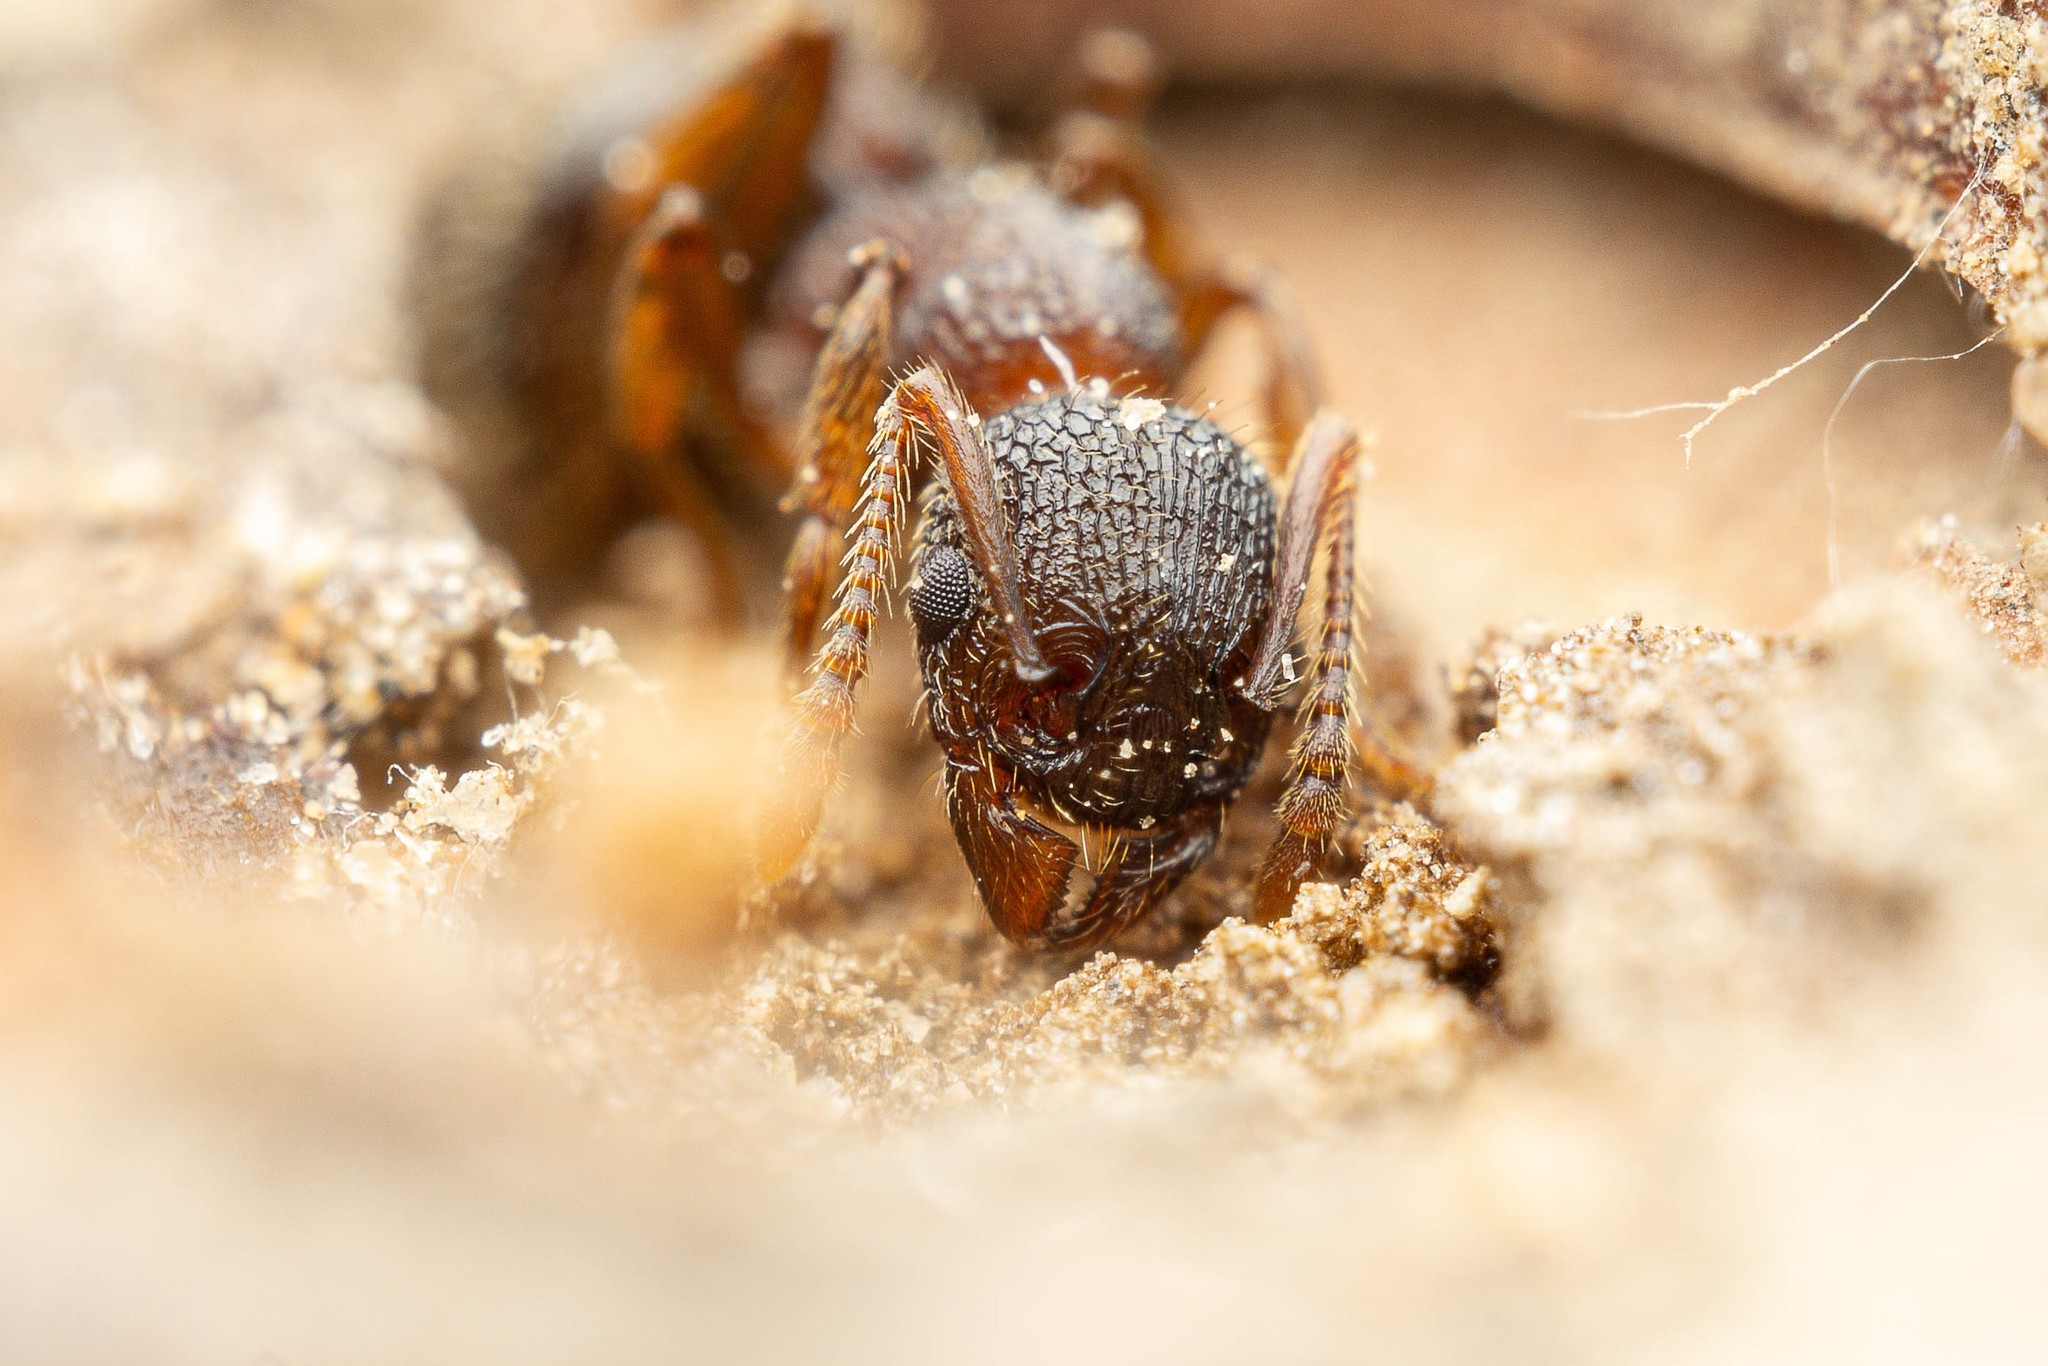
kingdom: Animalia
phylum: Arthropoda
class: Insecta
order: Hymenoptera
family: Formicidae
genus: Myrmica
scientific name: Myrmica latifrons
